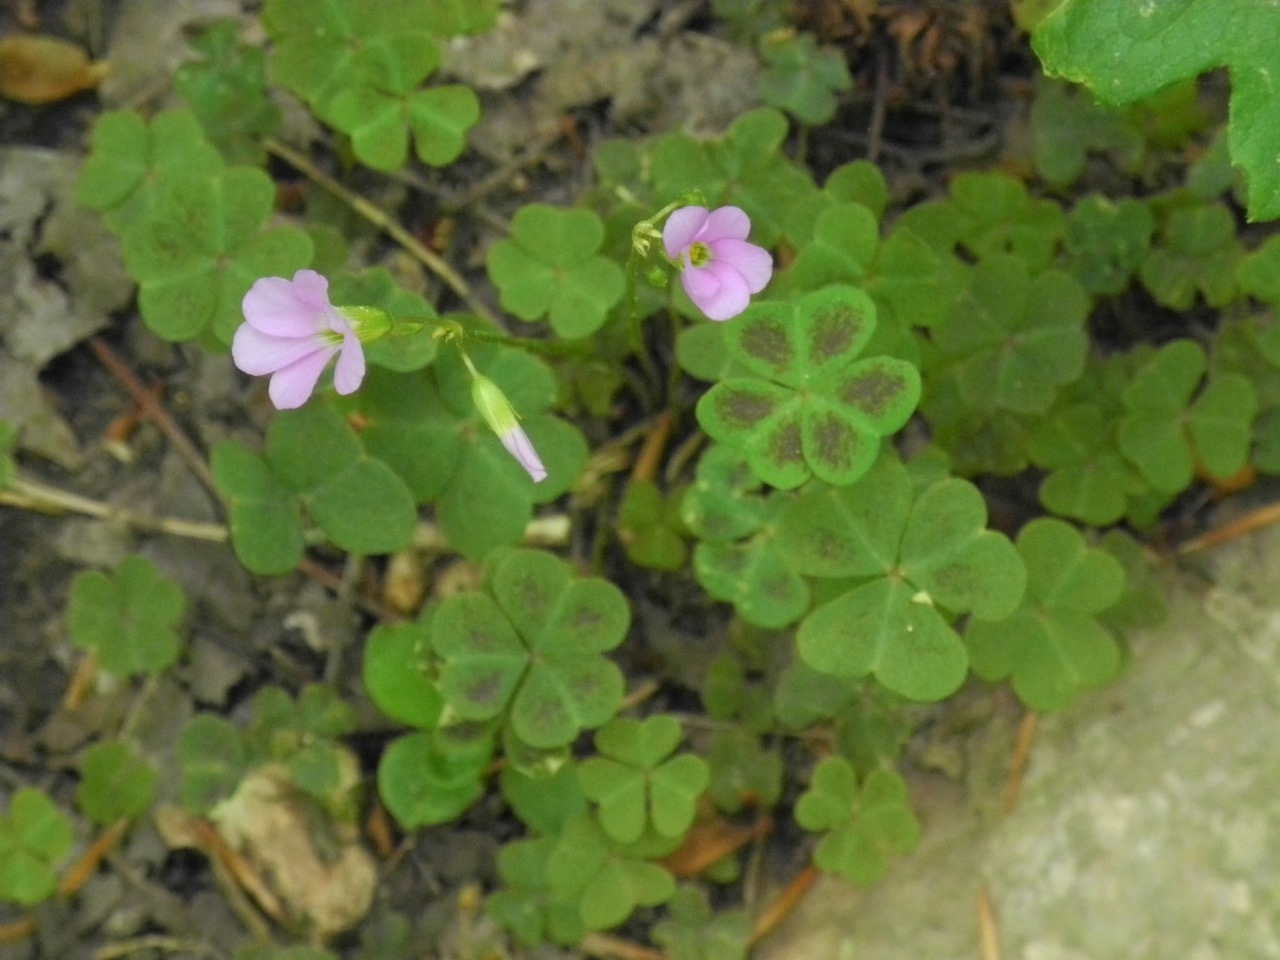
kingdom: Plantae
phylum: Tracheophyta
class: Magnoliopsida
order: Oxalidales
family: Oxalidaceae
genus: Oxalis
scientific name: Oxalis violacea
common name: Violet wood-sorrel
